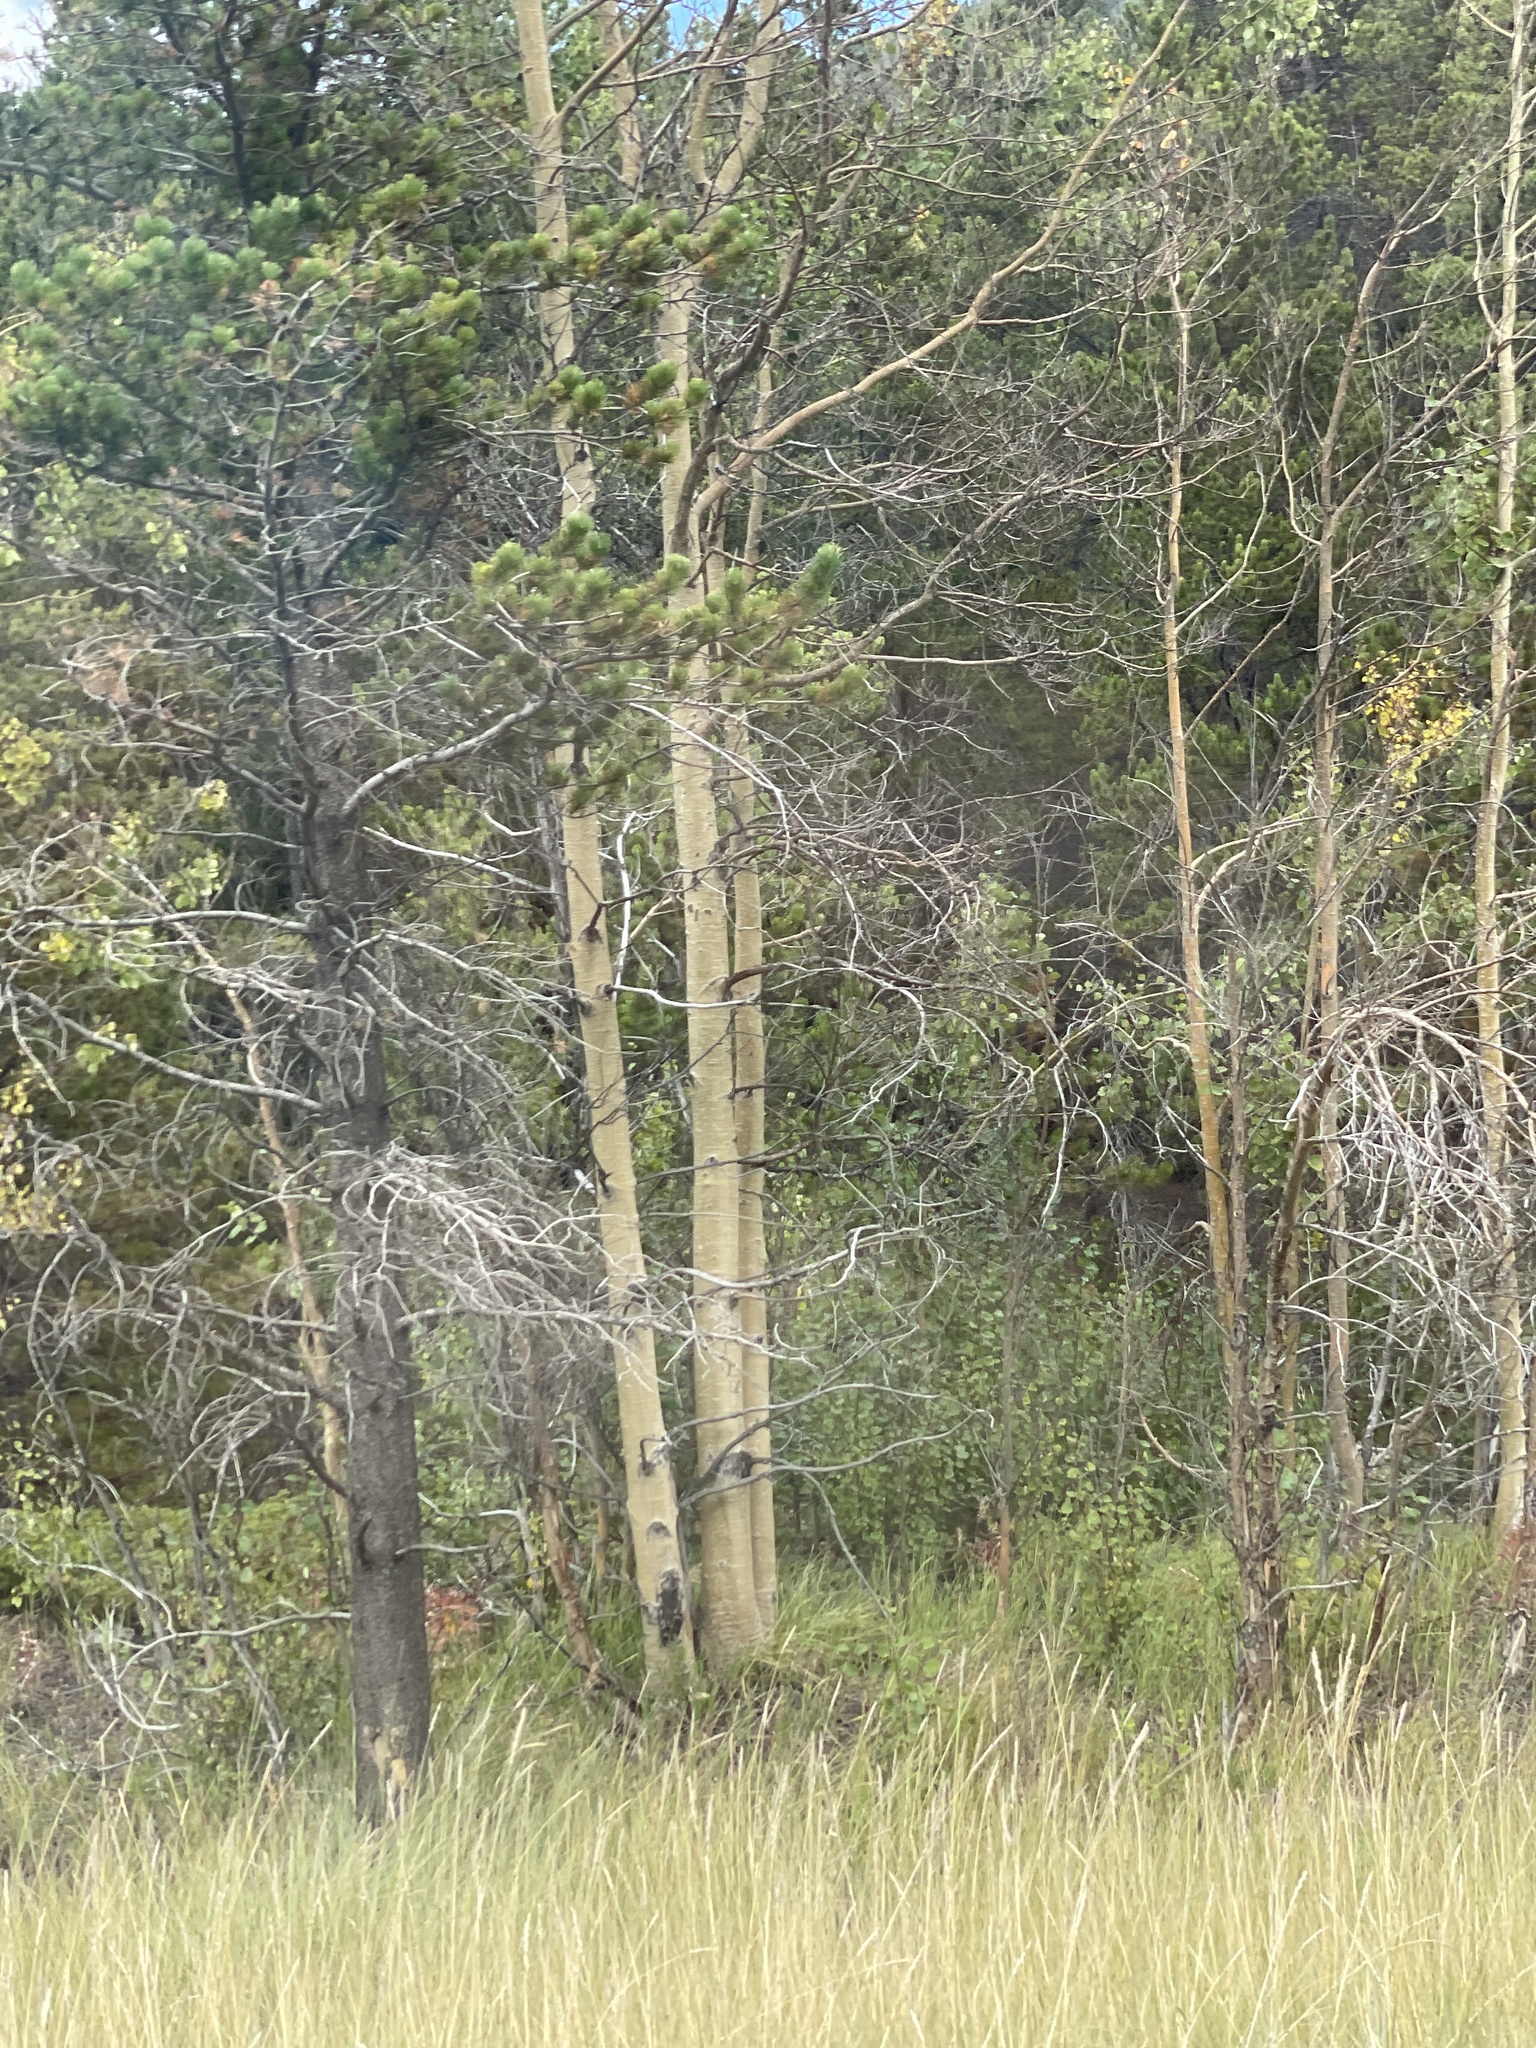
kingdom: Plantae
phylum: Tracheophyta
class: Magnoliopsida
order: Malpighiales
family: Salicaceae
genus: Populus
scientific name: Populus tremuloides
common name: Quaking aspen
